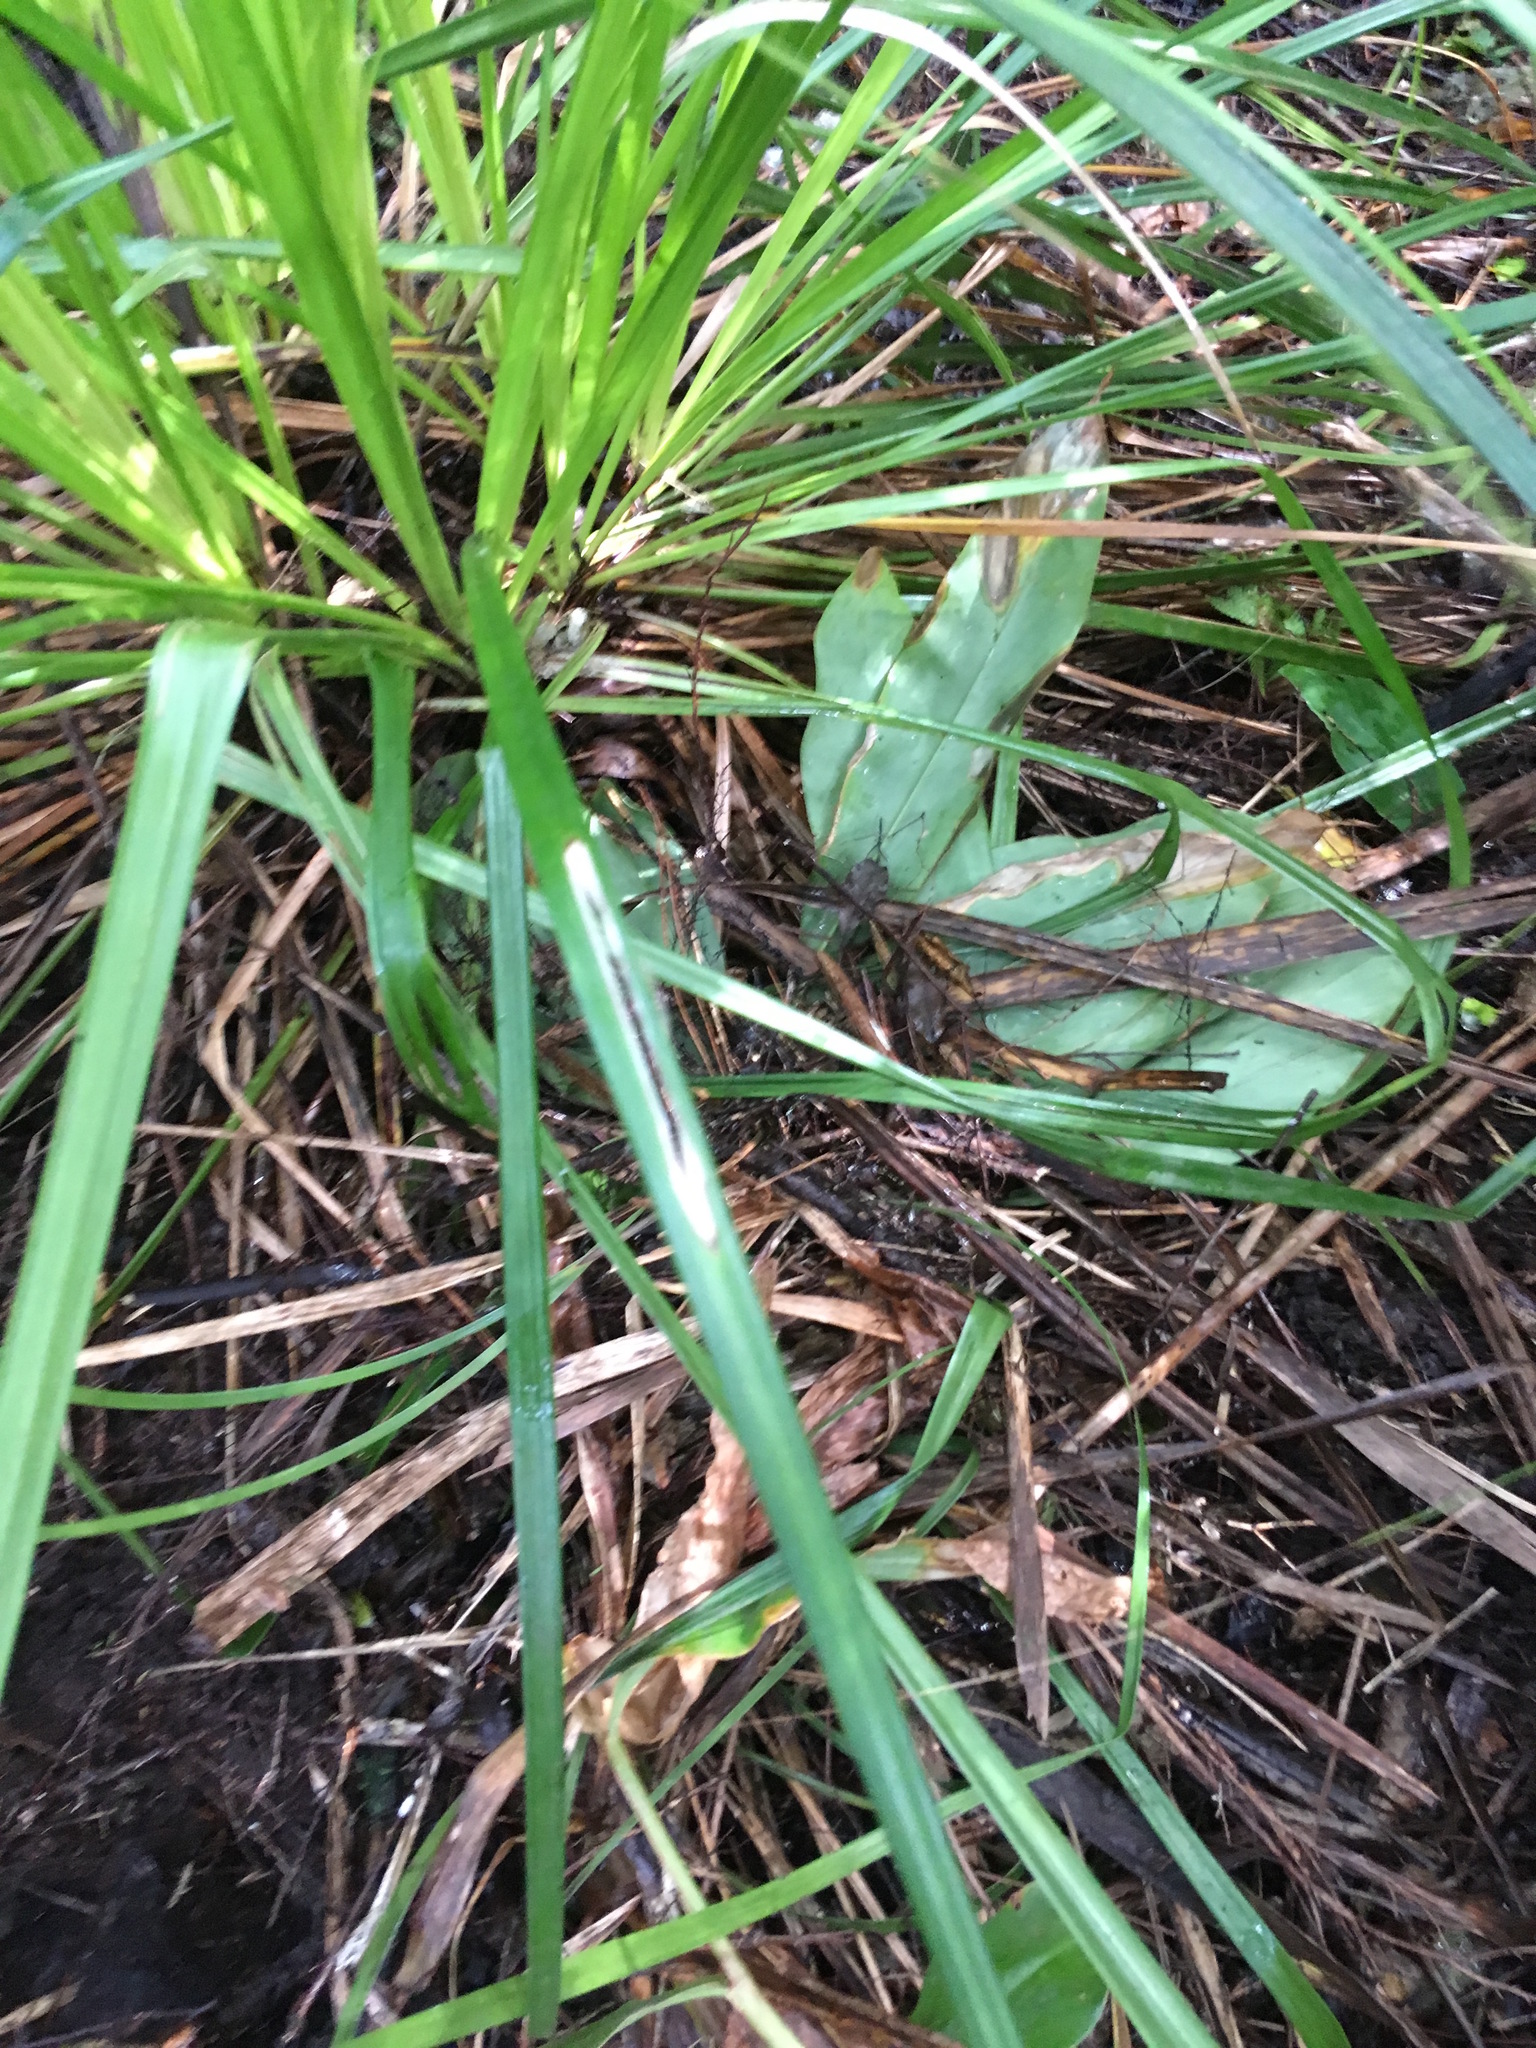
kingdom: Plantae
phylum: Tracheophyta
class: Liliopsida
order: Zingiberales
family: Zingiberaceae
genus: Hedychium
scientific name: Hedychium gardnerianum
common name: Himalayan ginger
